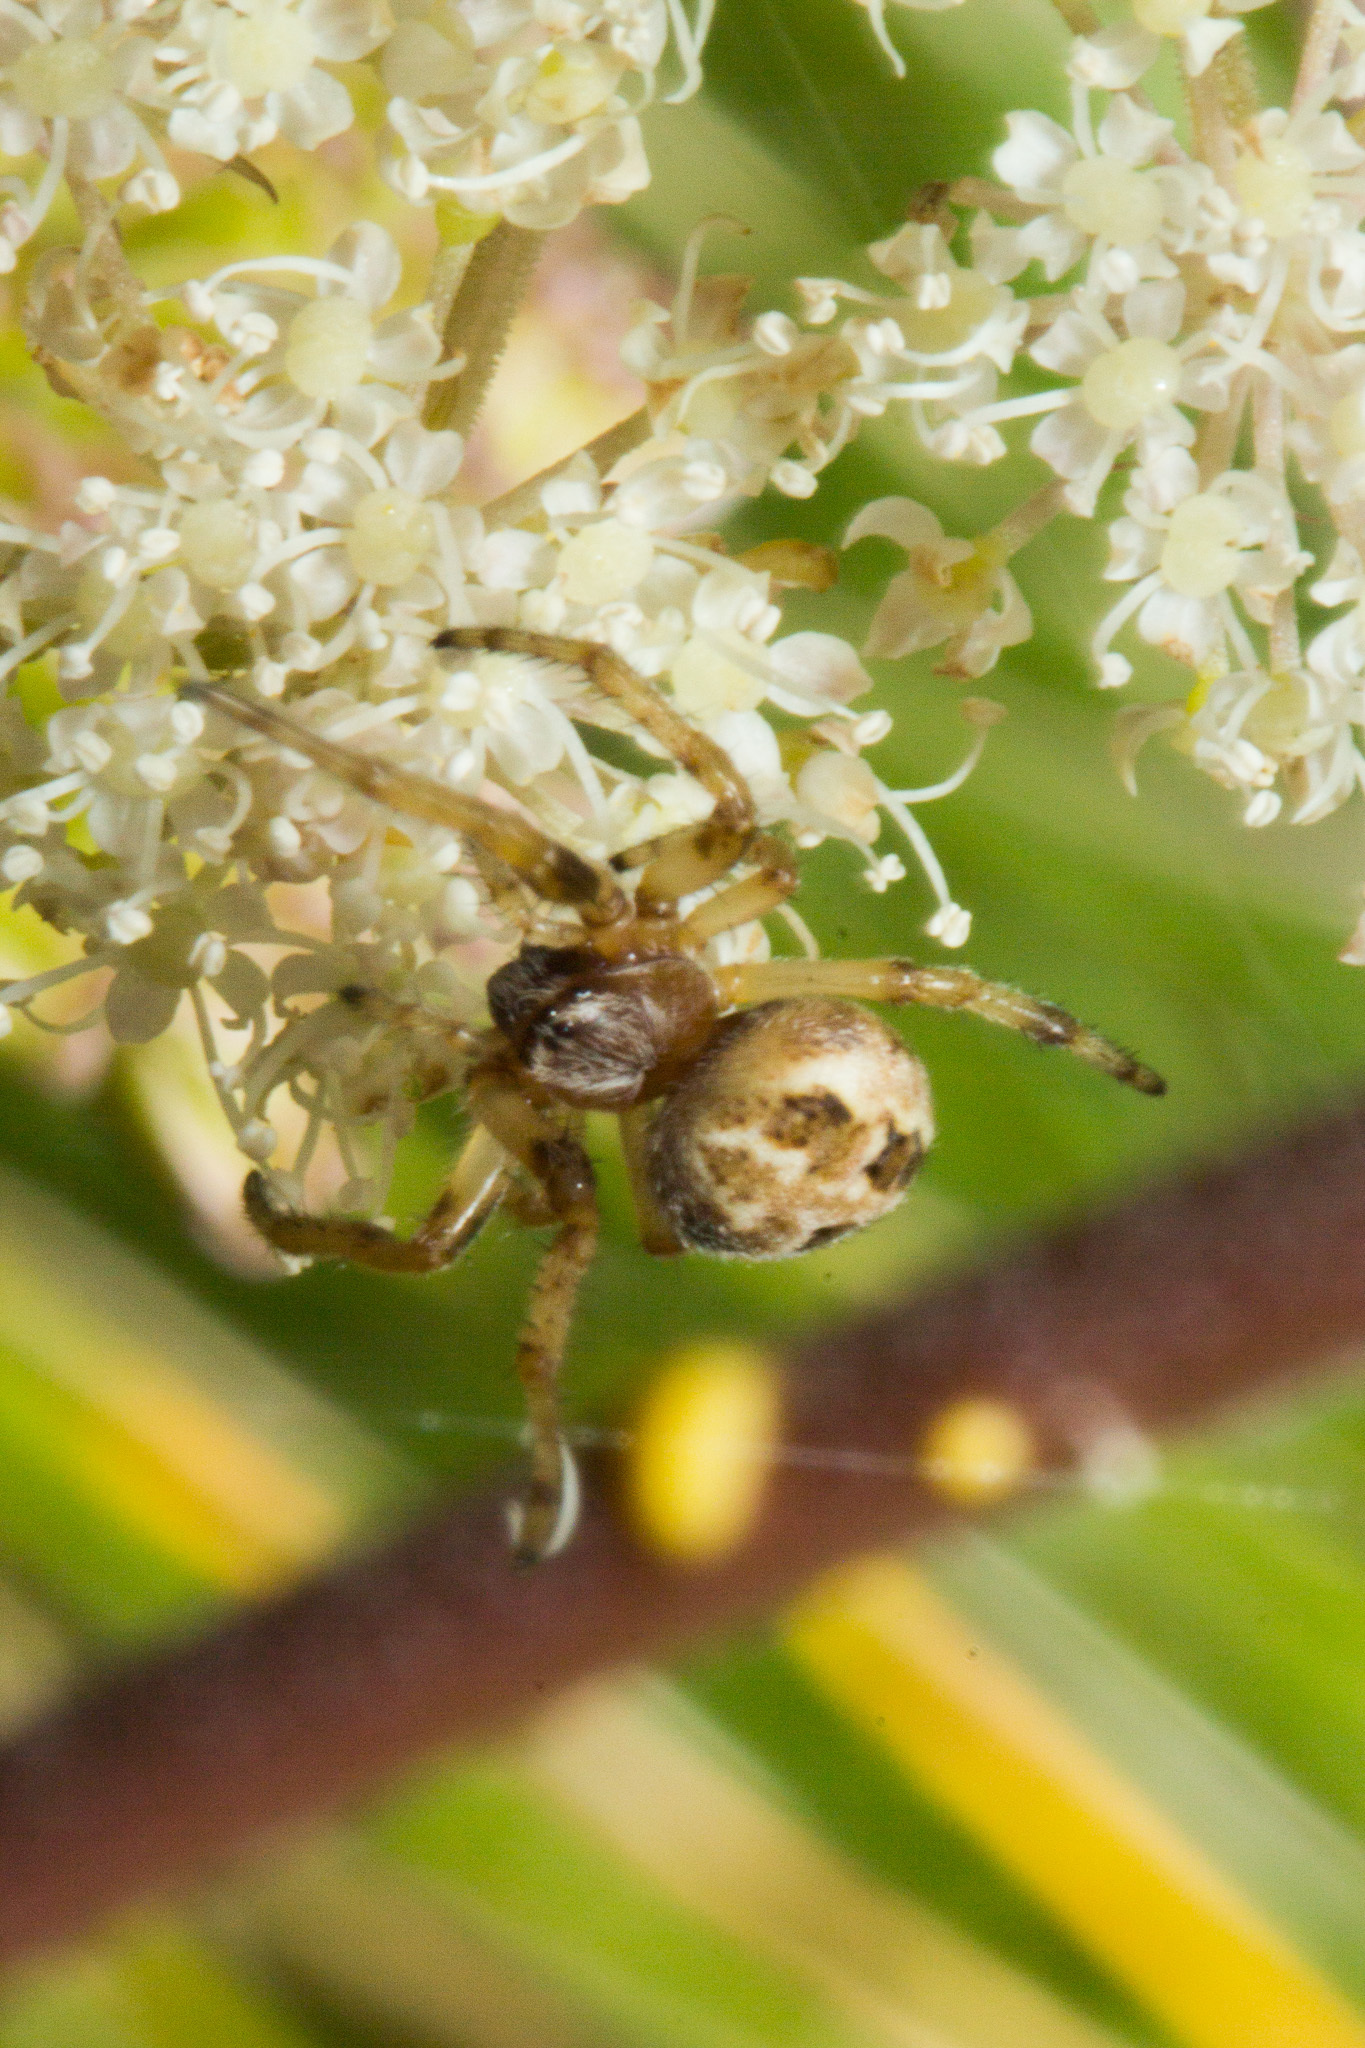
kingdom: Animalia
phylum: Arthropoda
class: Arachnida
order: Araneae
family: Araneidae
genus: Larinioides
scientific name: Larinioides cornutus
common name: Furrow orbweaver
